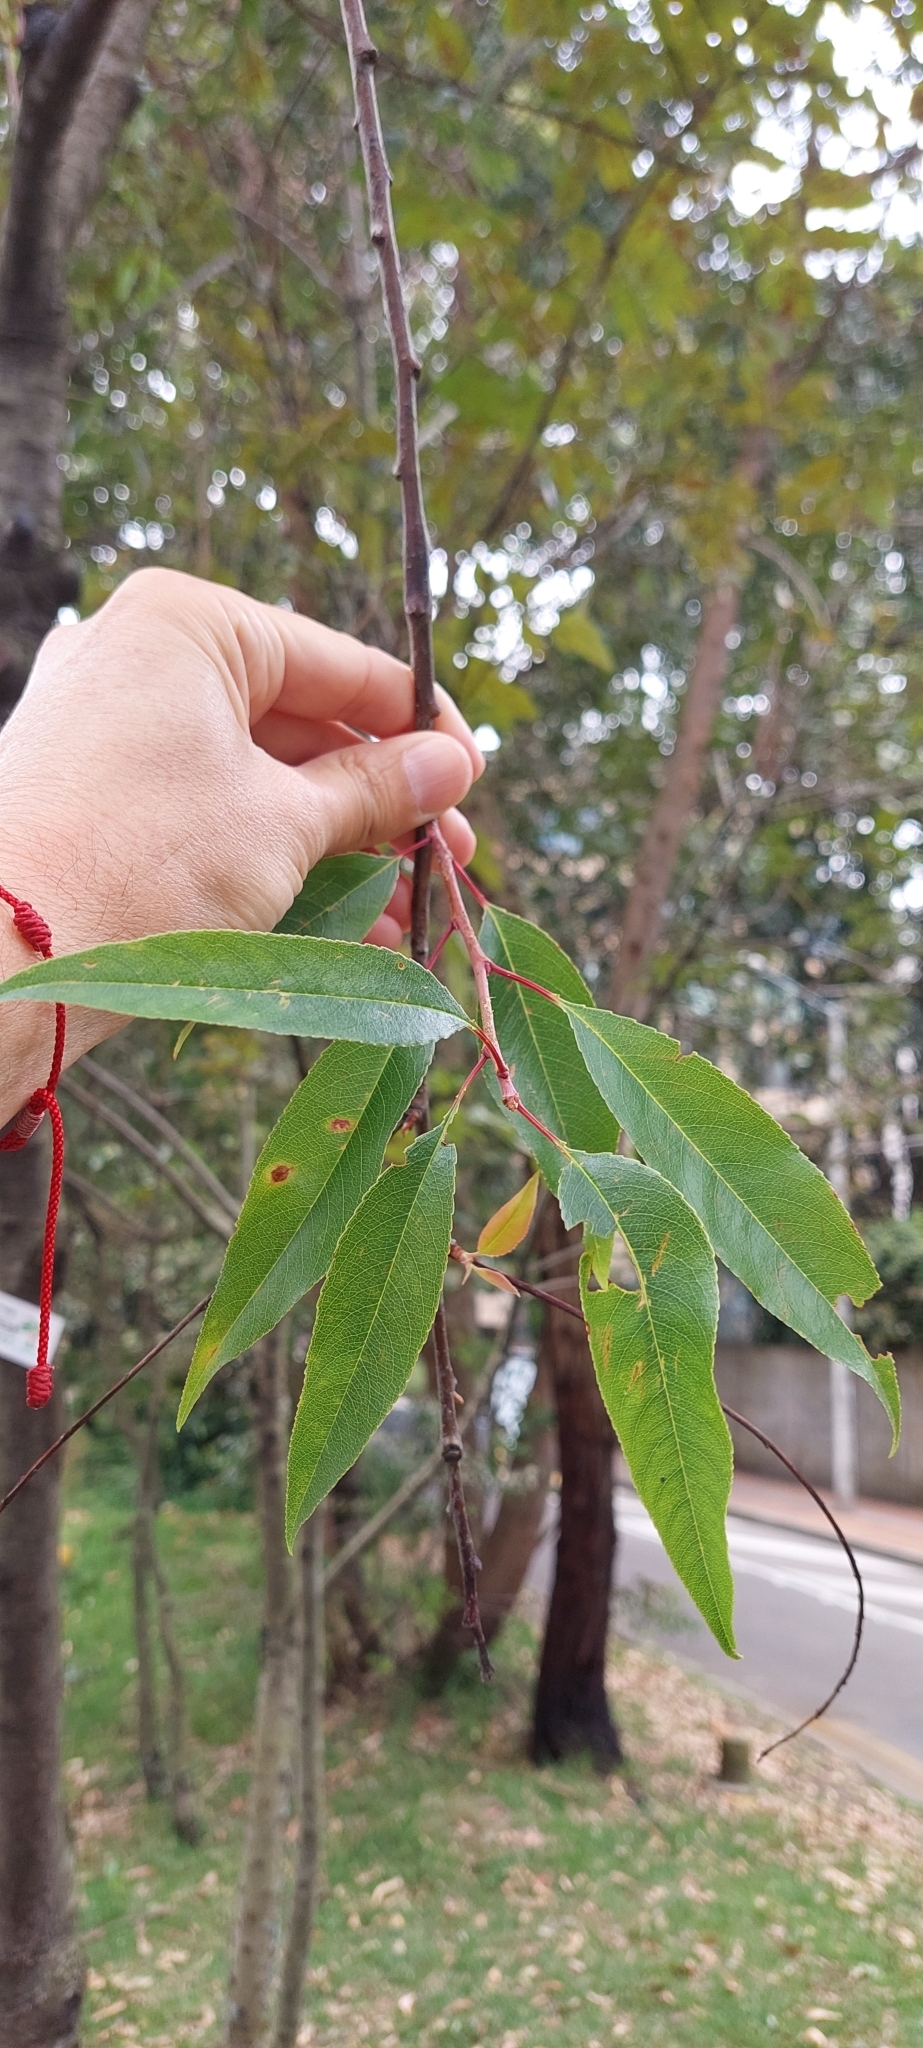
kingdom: Plantae
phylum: Tracheophyta
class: Magnoliopsida
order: Rosales
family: Rosaceae
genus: Prunus
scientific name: Prunus serotina
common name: Black cherry
